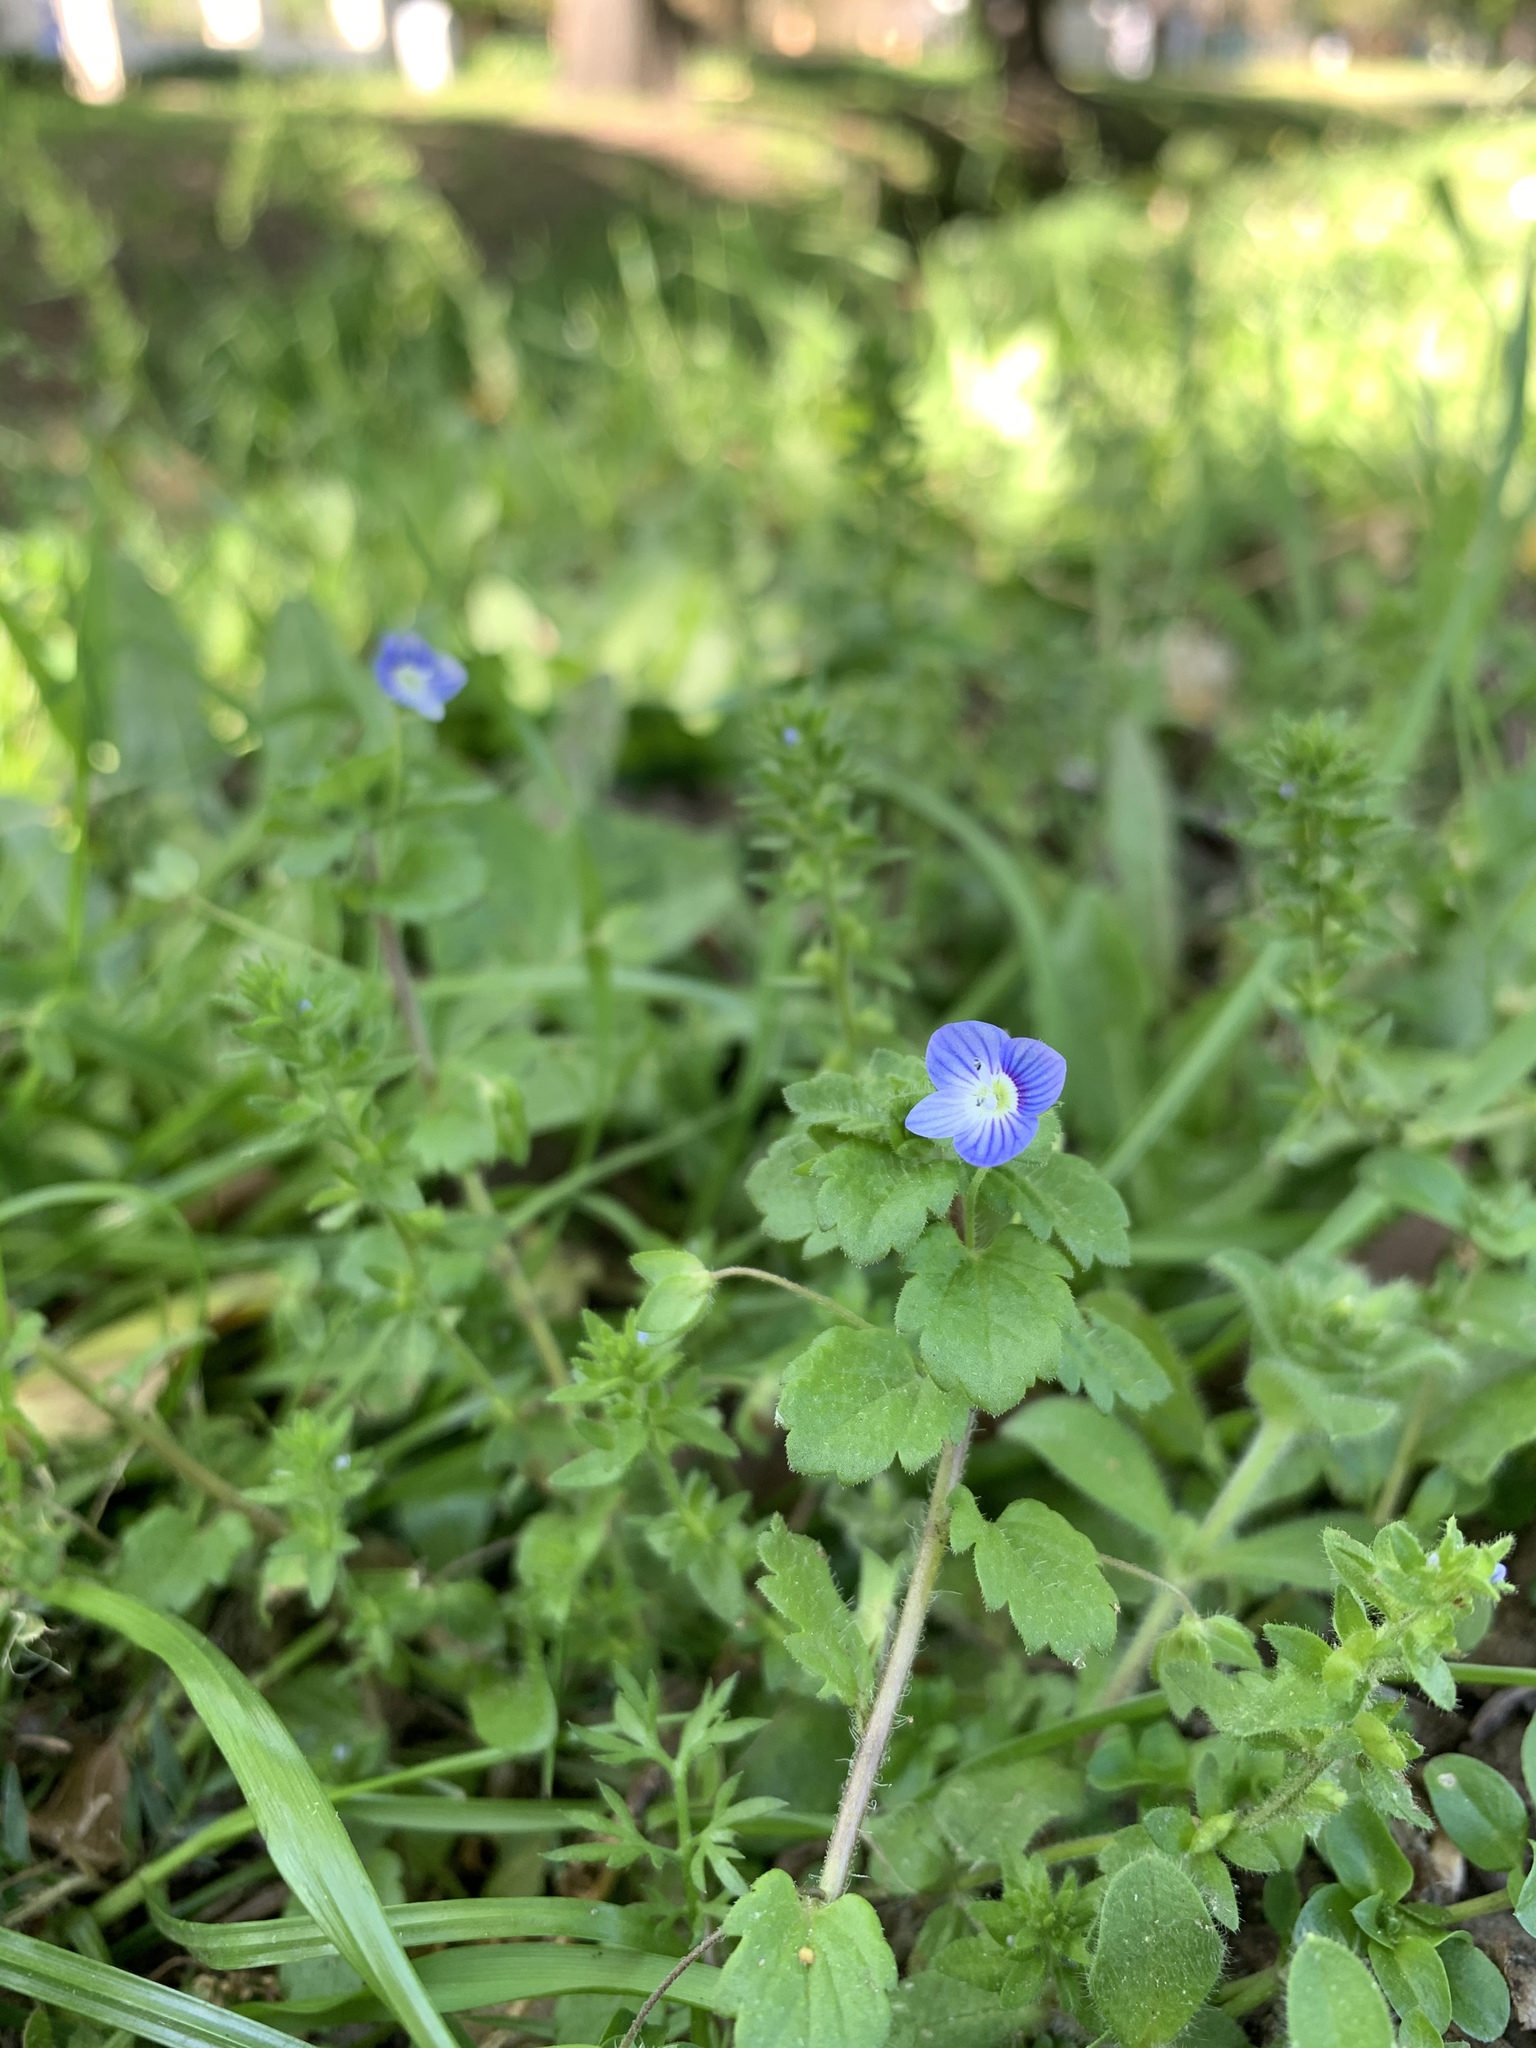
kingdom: Plantae
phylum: Tracheophyta
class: Magnoliopsida
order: Lamiales
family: Plantaginaceae
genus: Veronica
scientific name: Veronica persica
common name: Common field-speedwell
